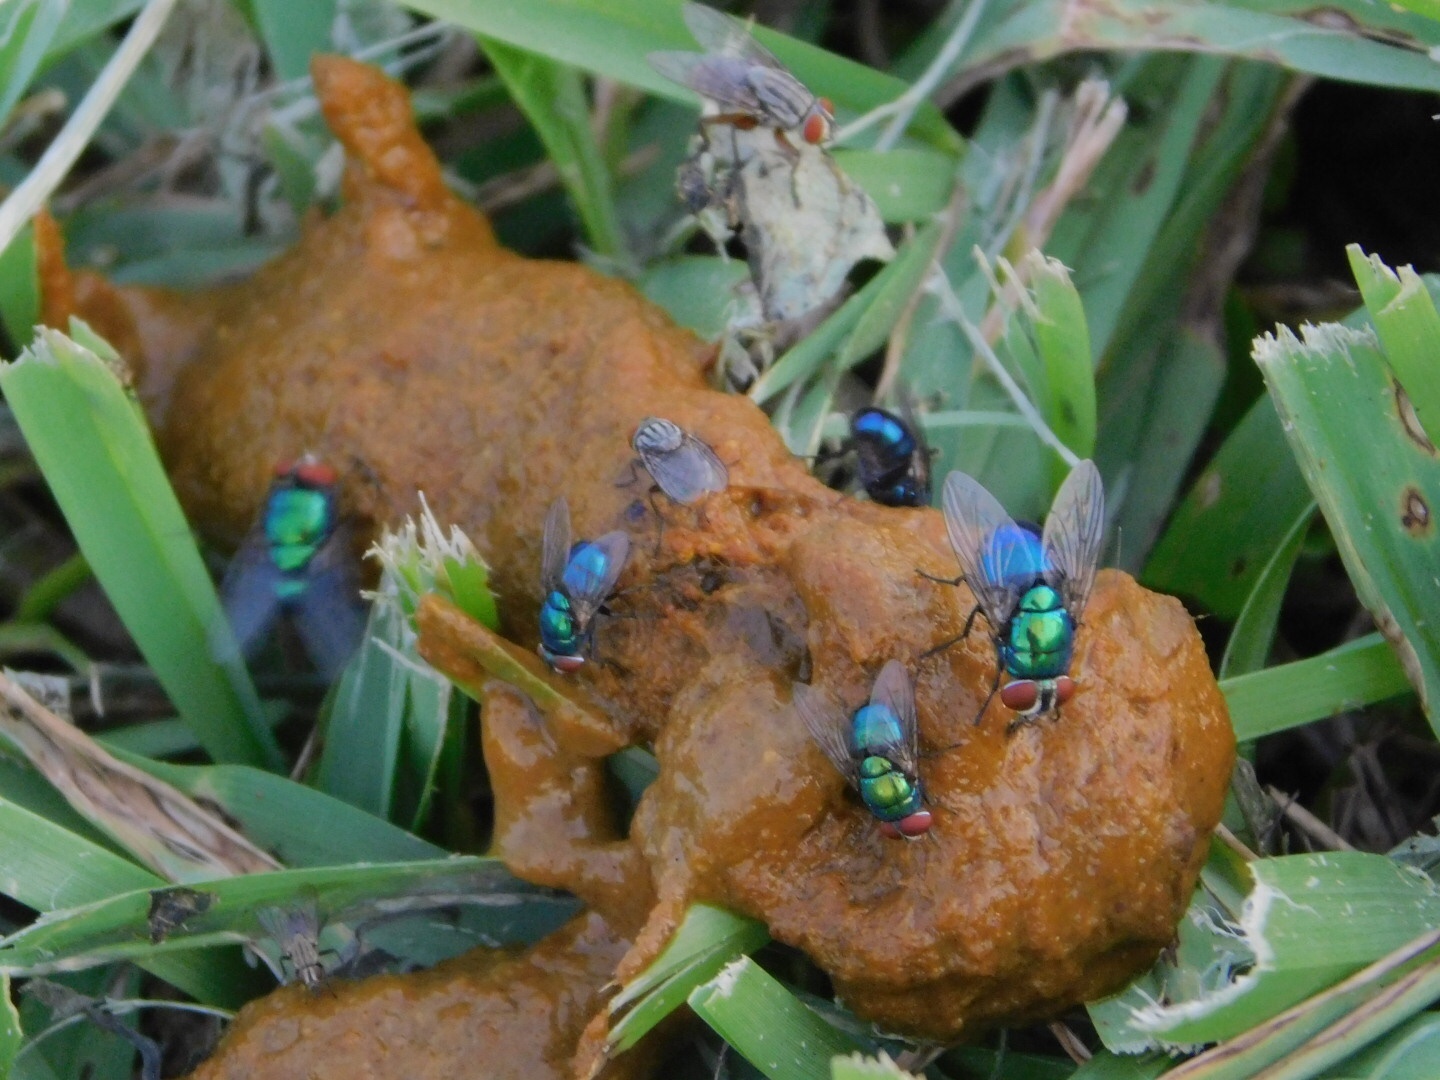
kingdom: Animalia
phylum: Arthropoda
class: Insecta
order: Diptera
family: Calliphoridae
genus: Lucilia
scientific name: Lucilia eximia
